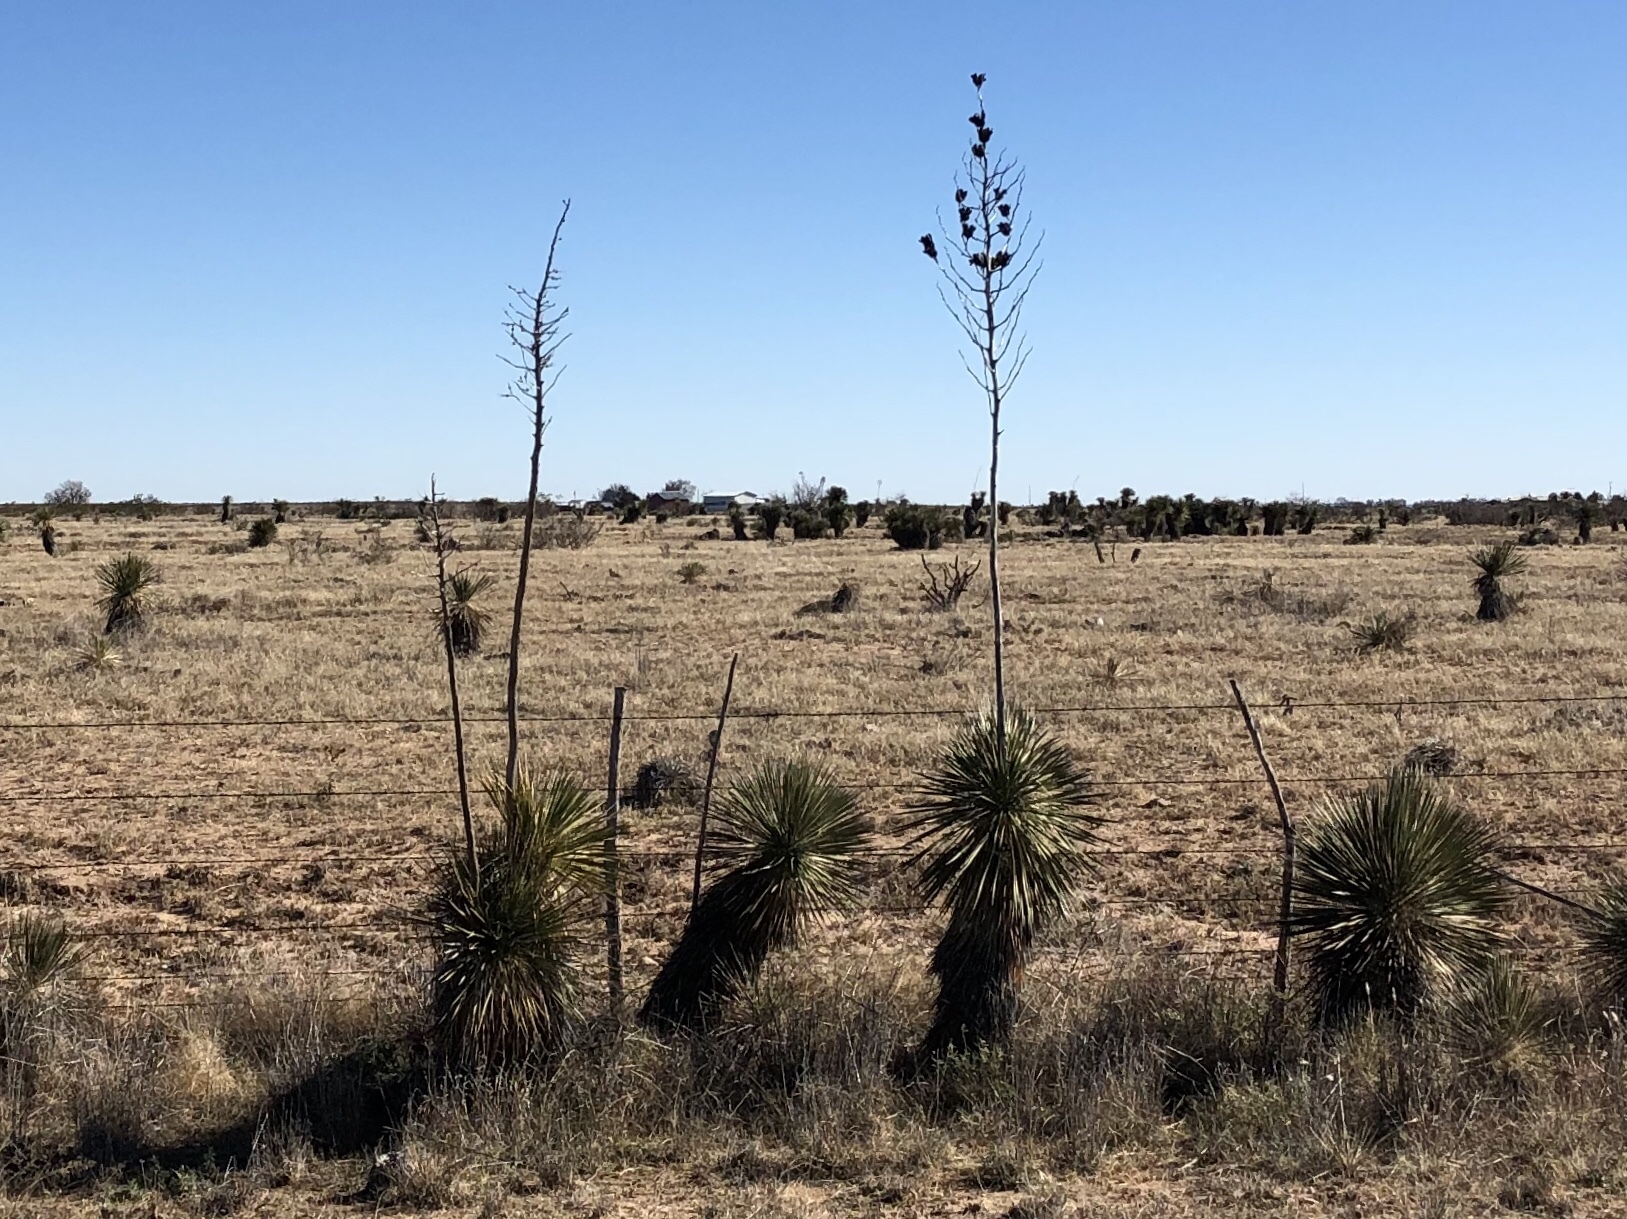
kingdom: Plantae
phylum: Tracheophyta
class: Liliopsida
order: Asparagales
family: Asparagaceae
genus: Yucca
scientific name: Yucca elata
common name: Palmella
